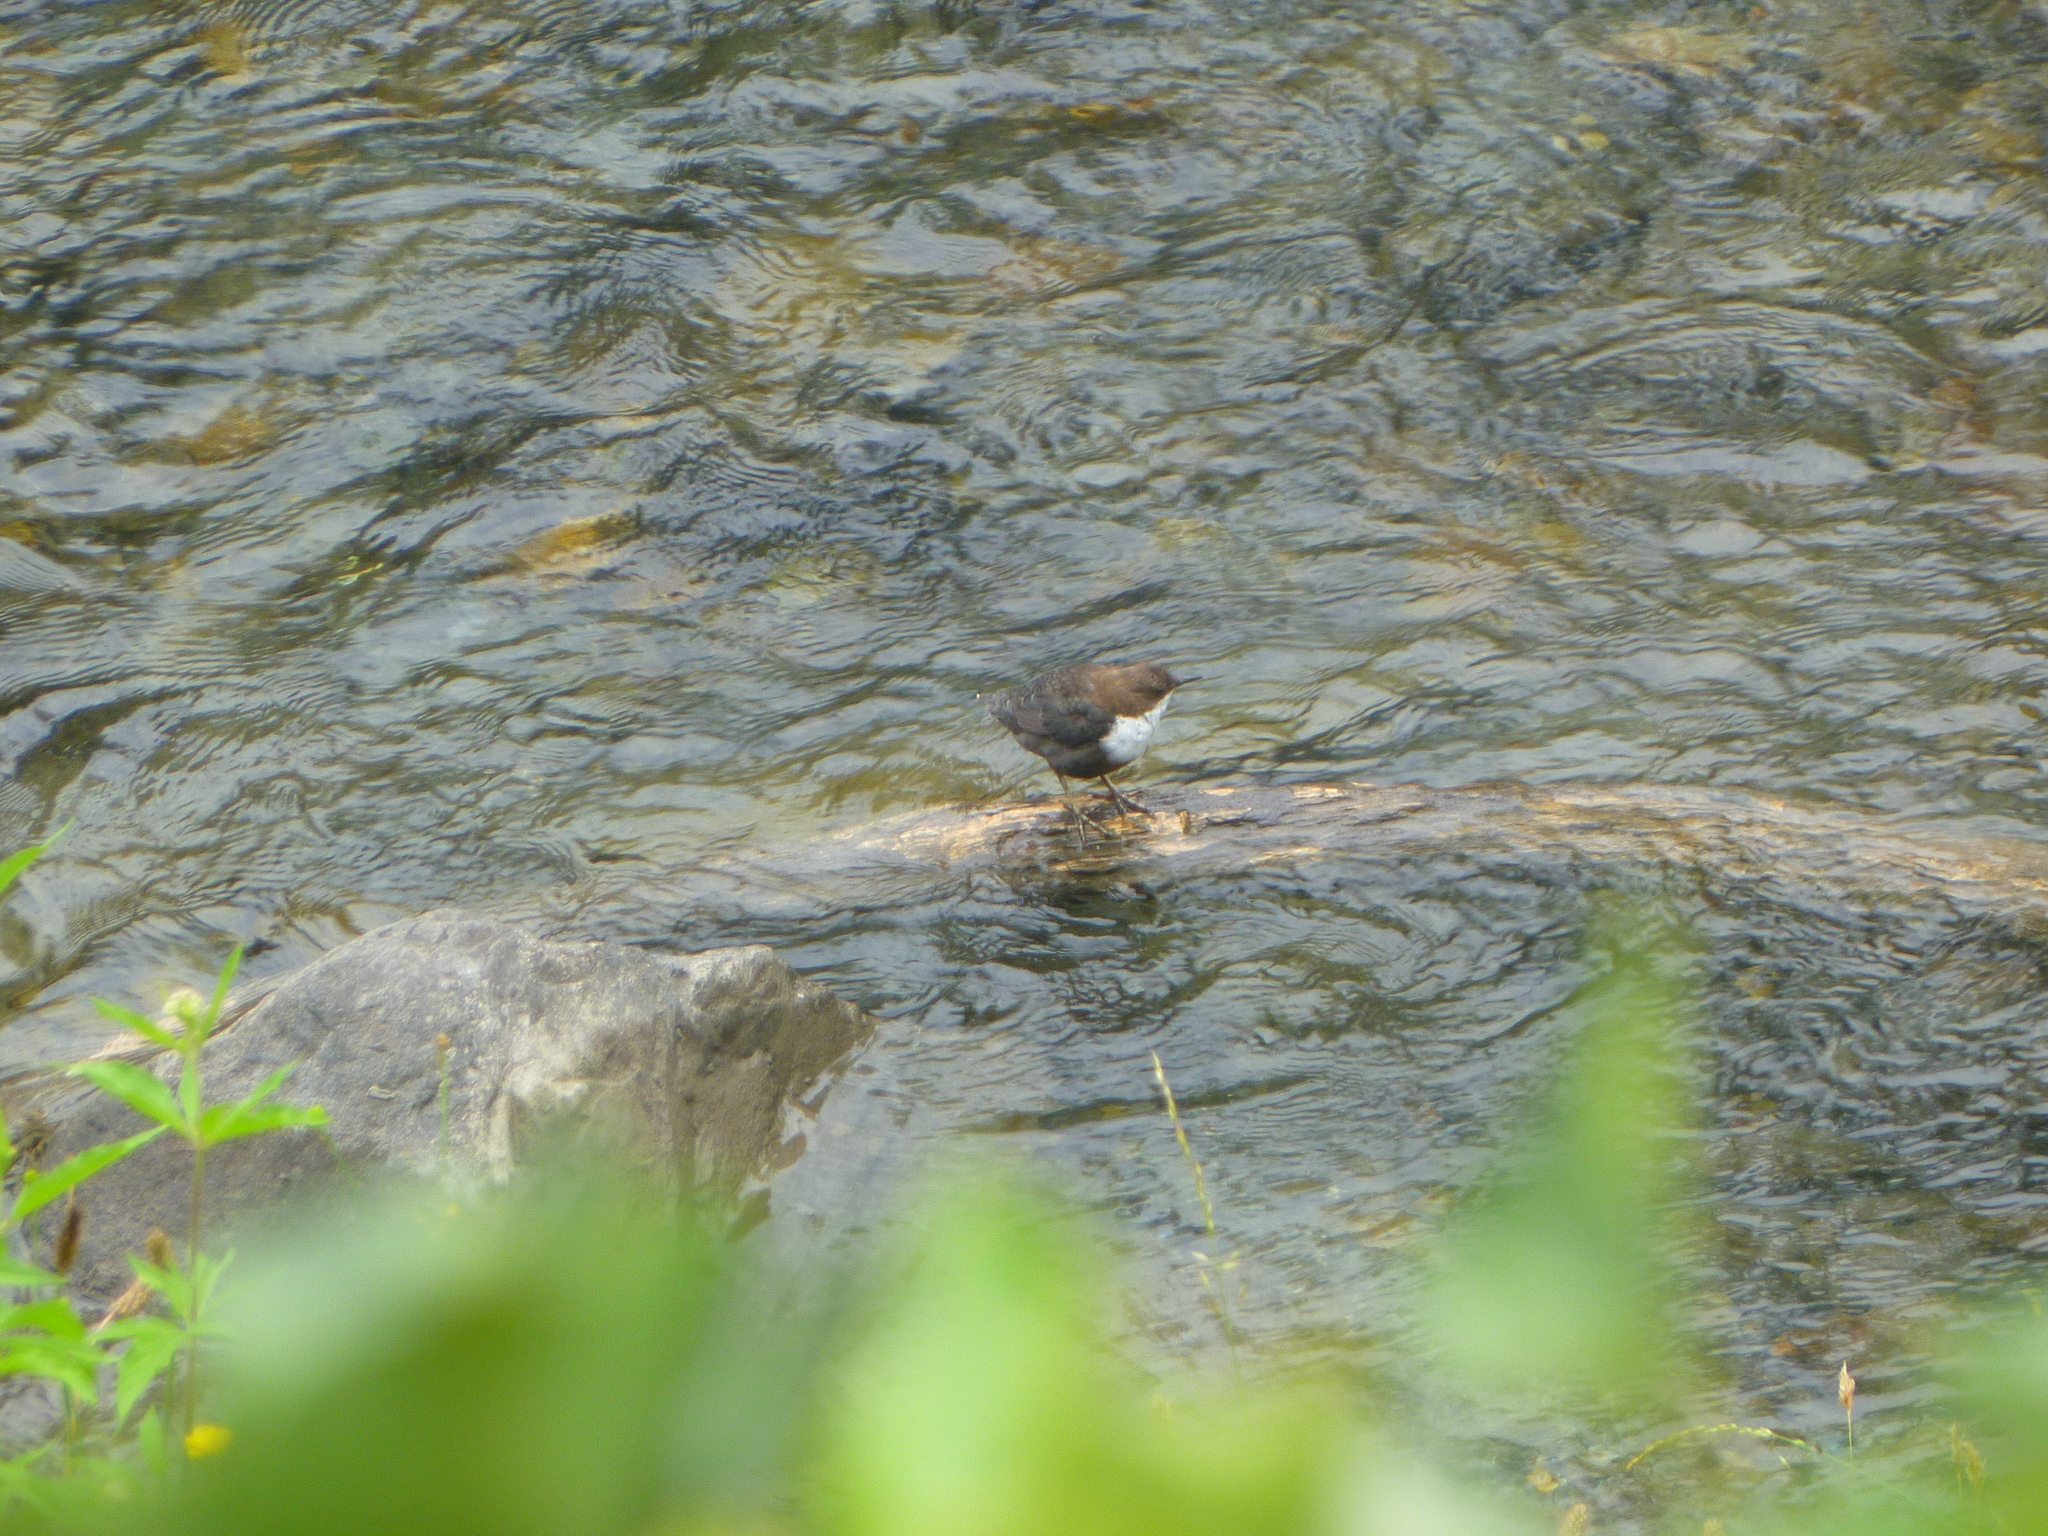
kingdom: Animalia
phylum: Chordata
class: Aves
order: Passeriformes
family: Cinclidae
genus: Cinclus
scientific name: Cinclus cinclus
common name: White-throated dipper
